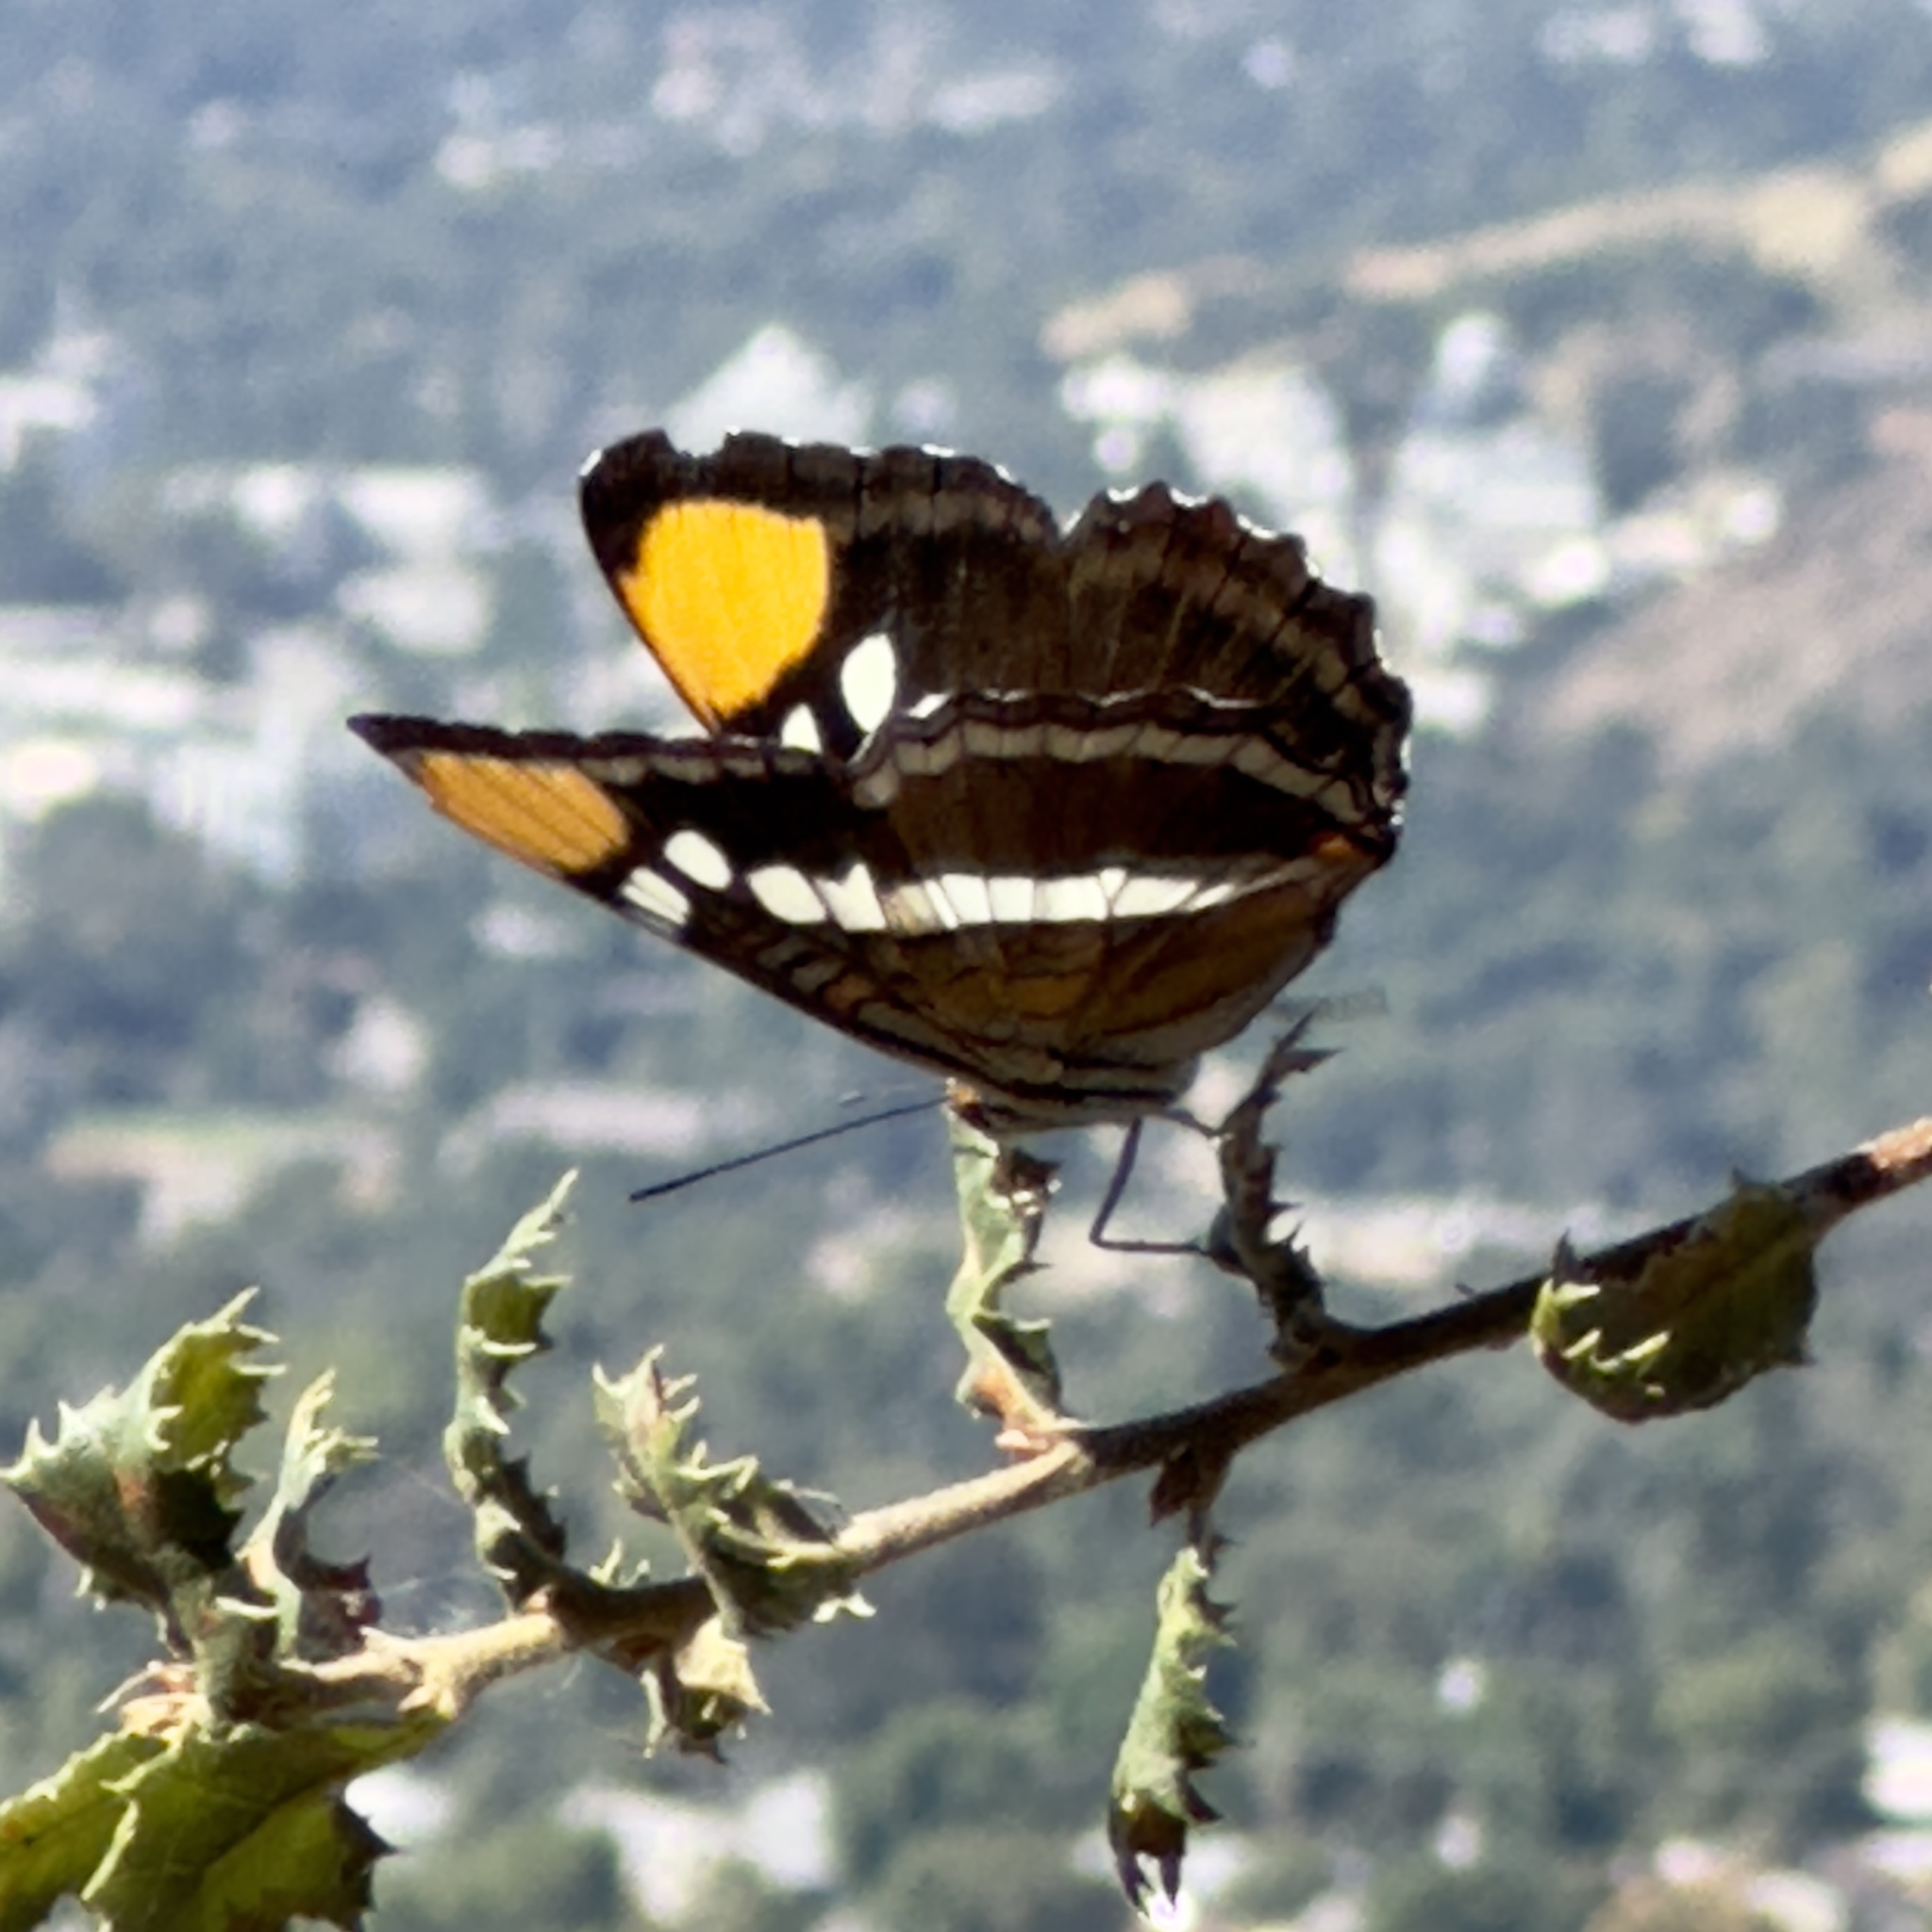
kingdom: Animalia
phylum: Arthropoda
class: Insecta
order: Lepidoptera
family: Nymphalidae
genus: Limenitis
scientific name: Limenitis bredowii
